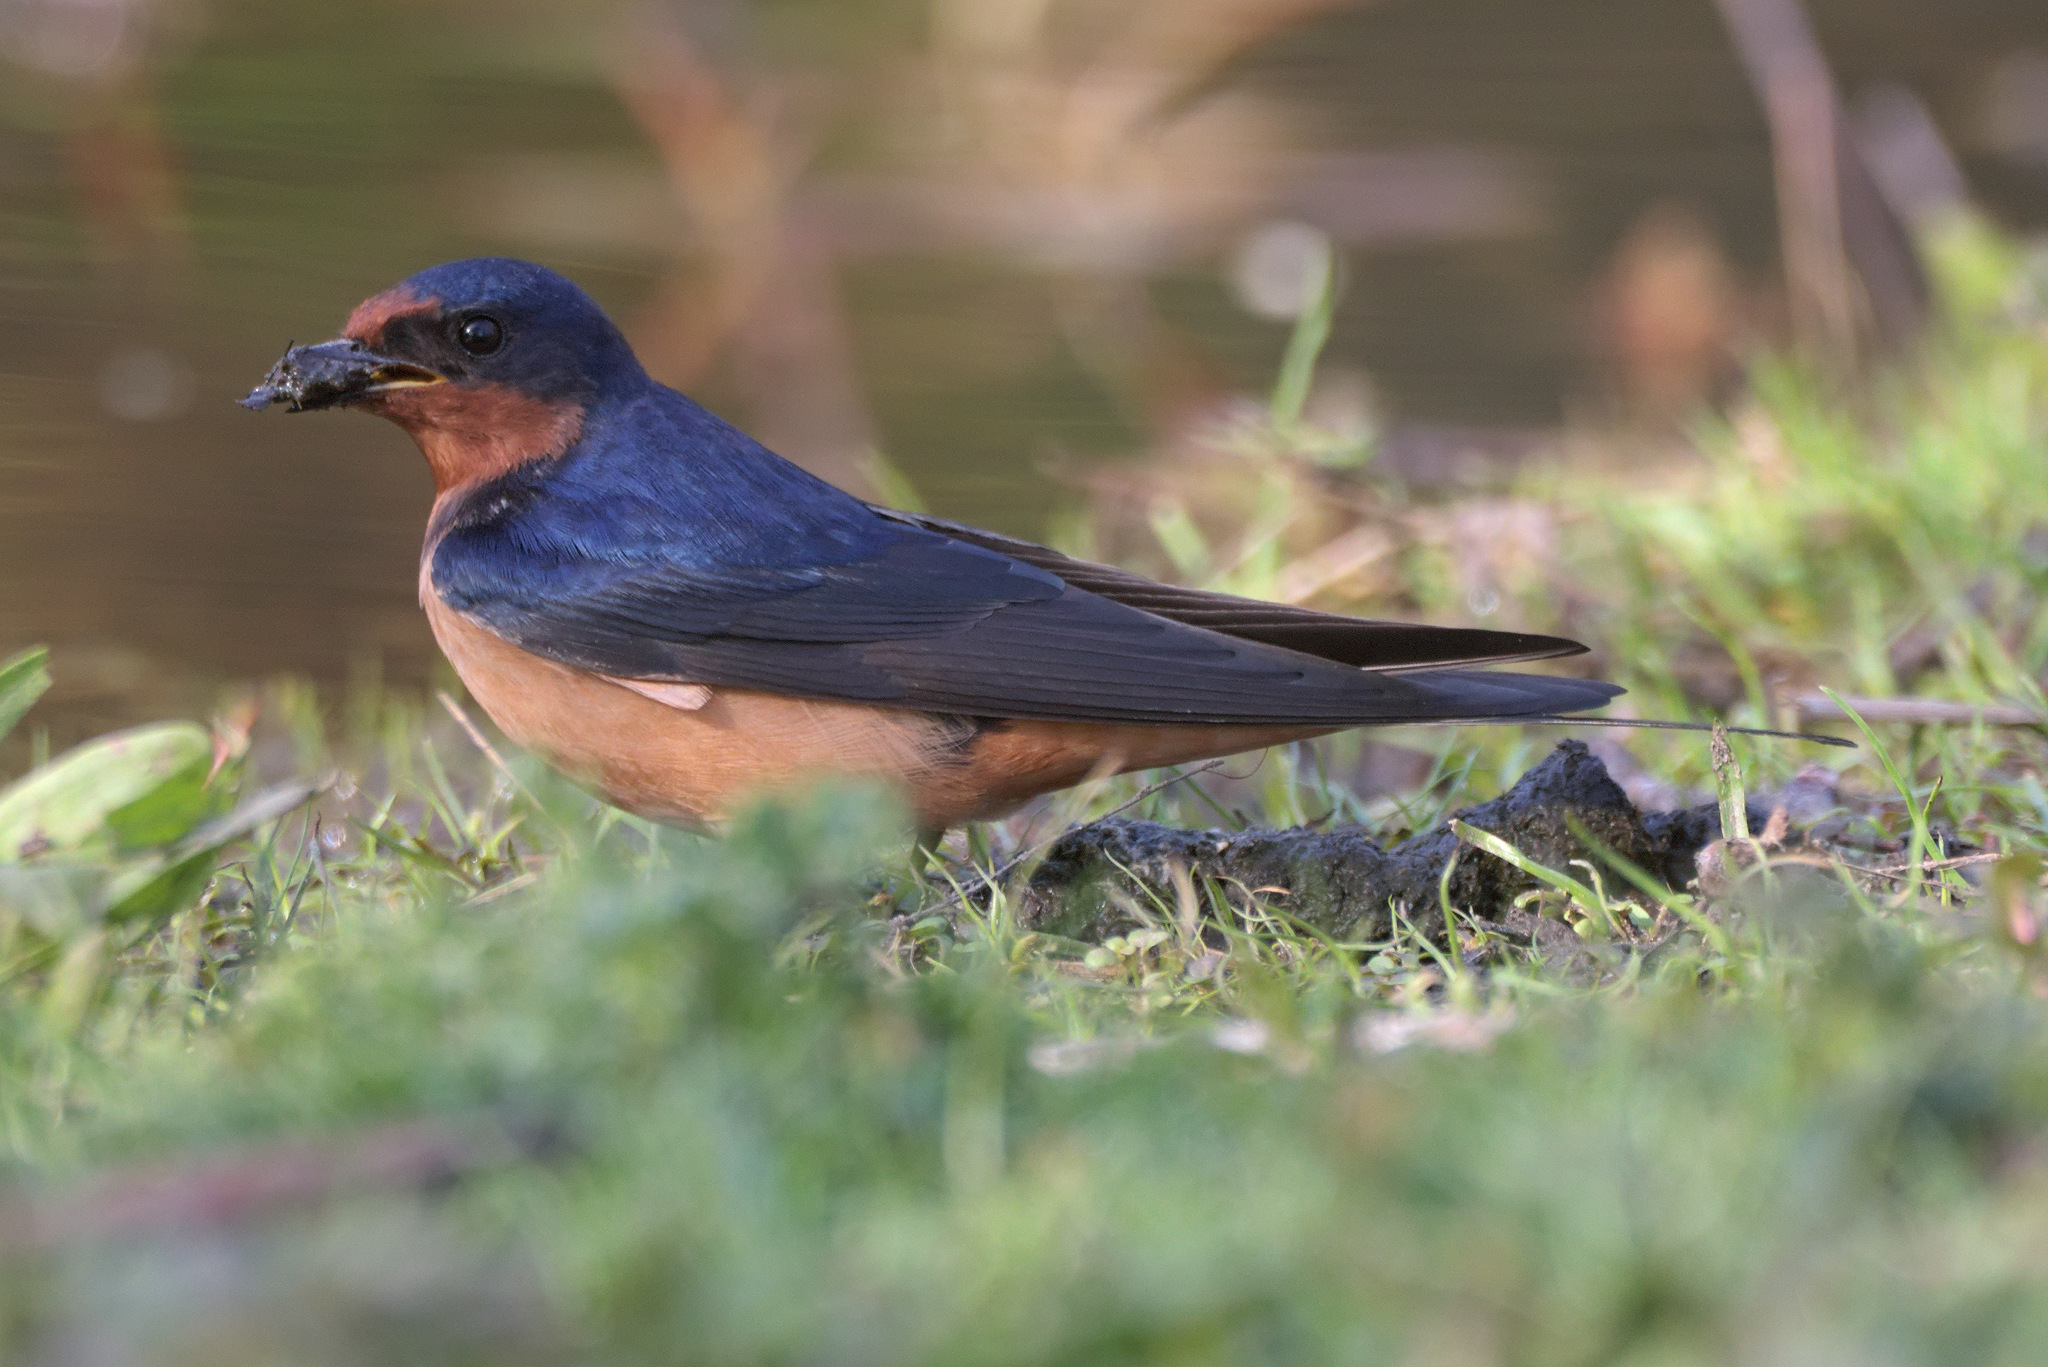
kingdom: Animalia
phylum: Chordata
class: Aves
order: Passeriformes
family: Hirundinidae
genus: Hirundo
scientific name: Hirundo rustica
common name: Barn swallow
